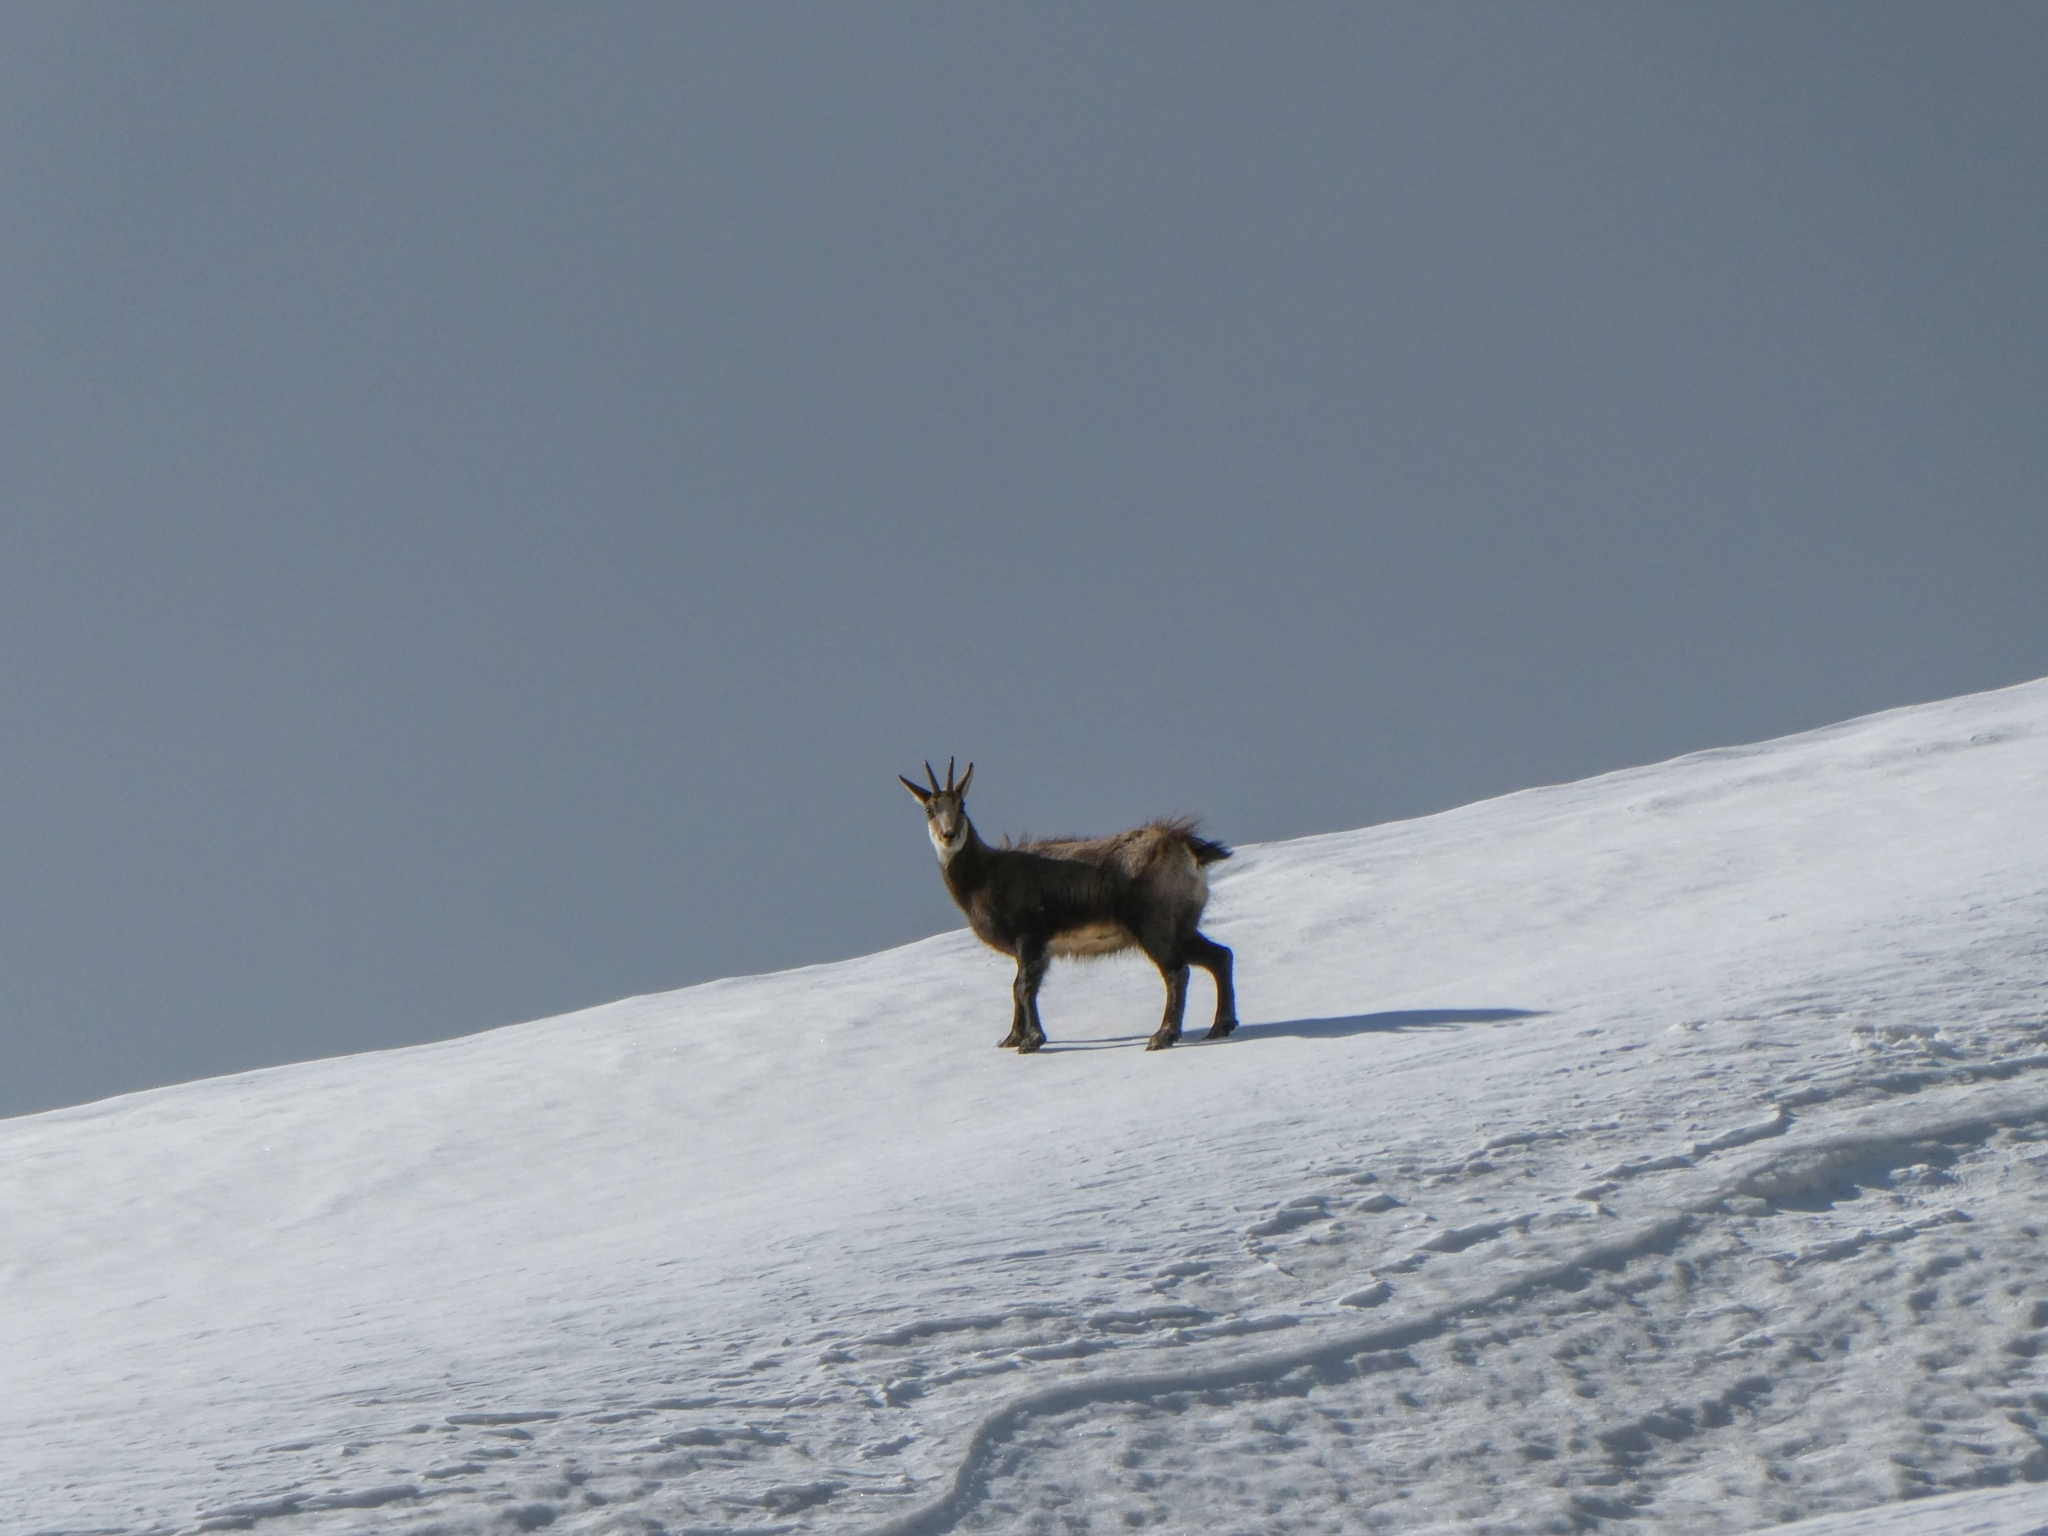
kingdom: Animalia
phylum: Chordata
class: Mammalia
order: Artiodactyla
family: Bovidae
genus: Rupicapra
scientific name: Rupicapra rupicapra
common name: Chamois
